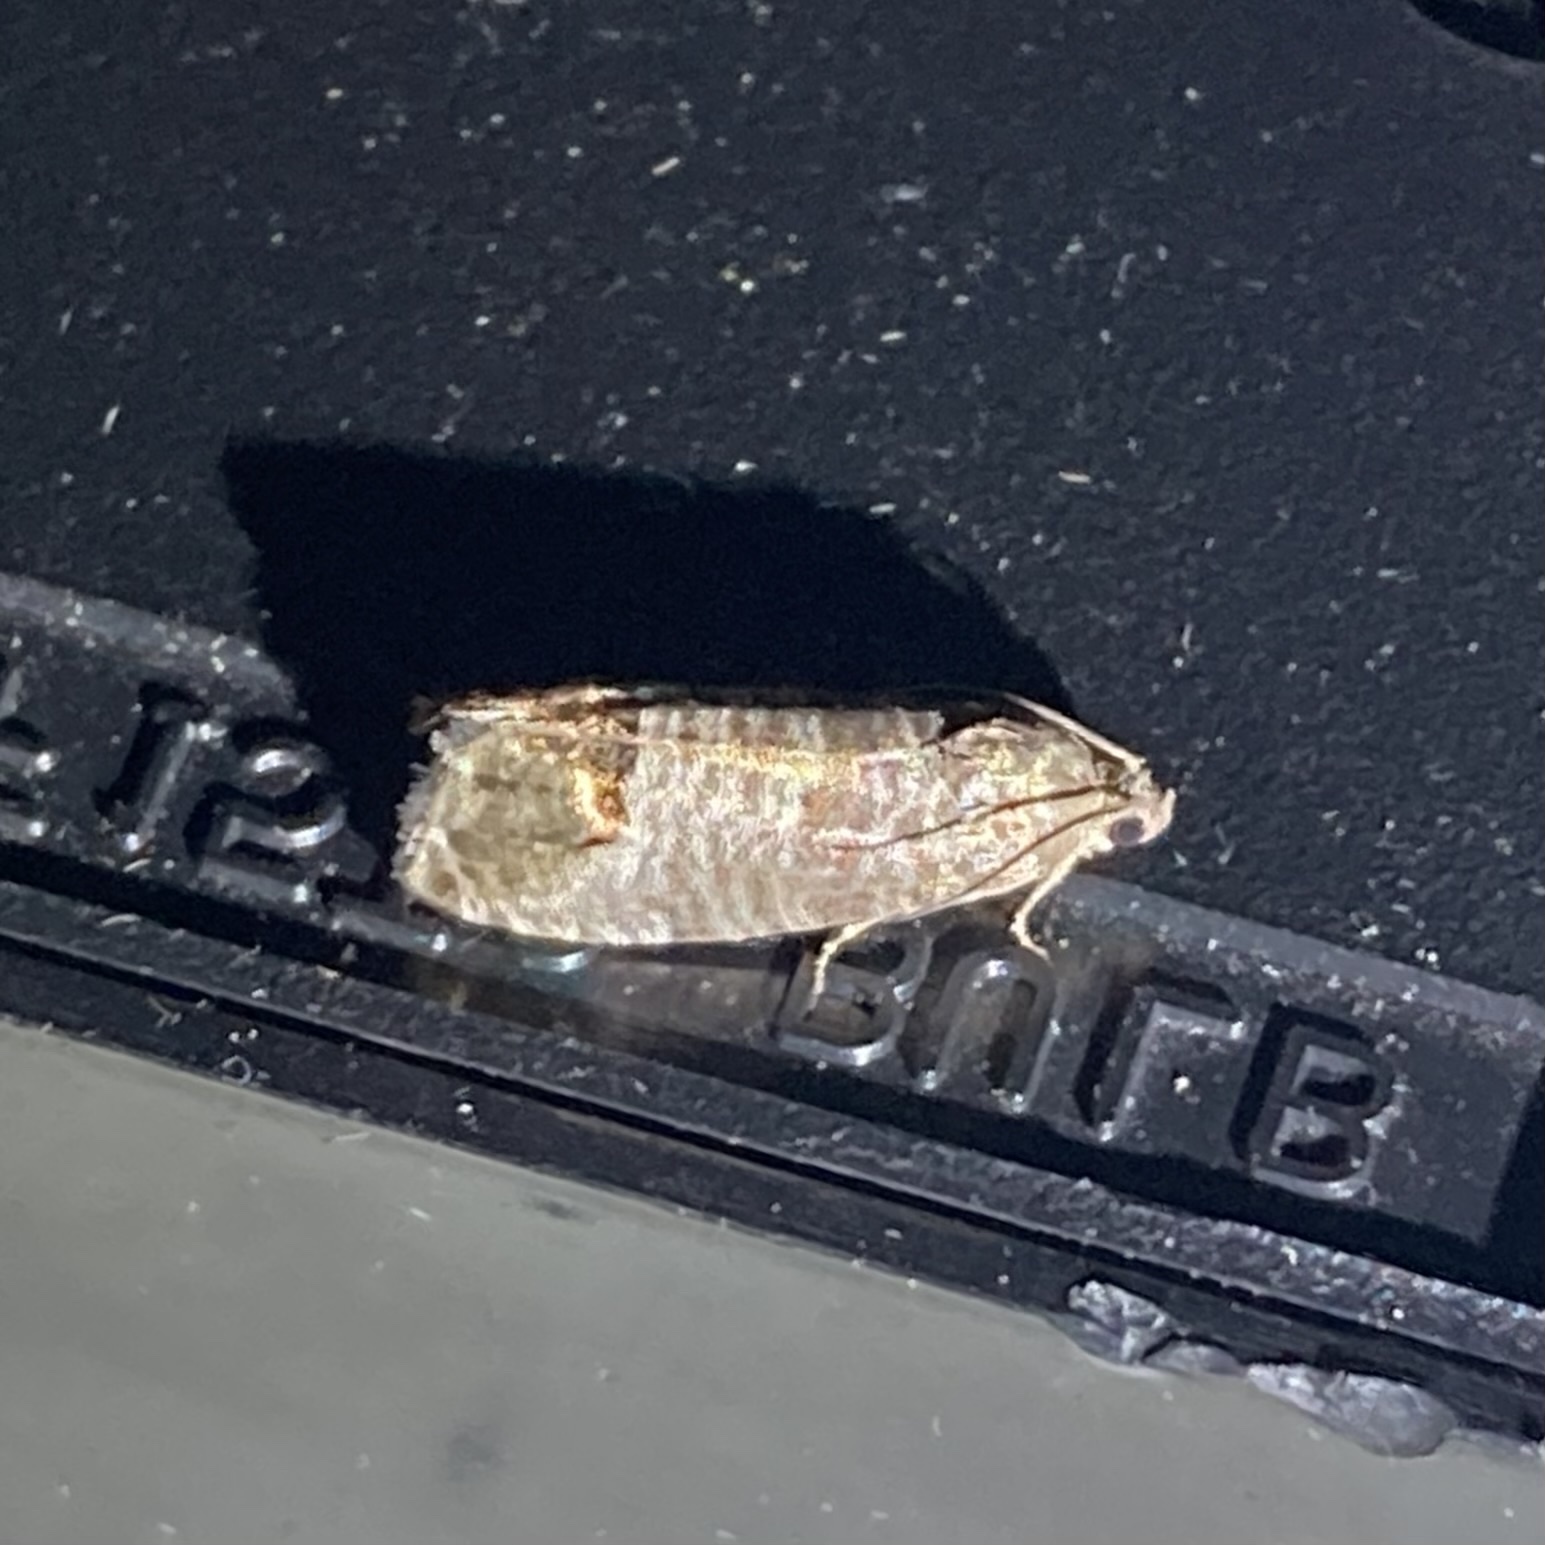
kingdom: Animalia
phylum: Arthropoda
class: Insecta
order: Lepidoptera
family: Tortricidae
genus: Cydia
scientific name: Cydia pomonella
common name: Codling moth
